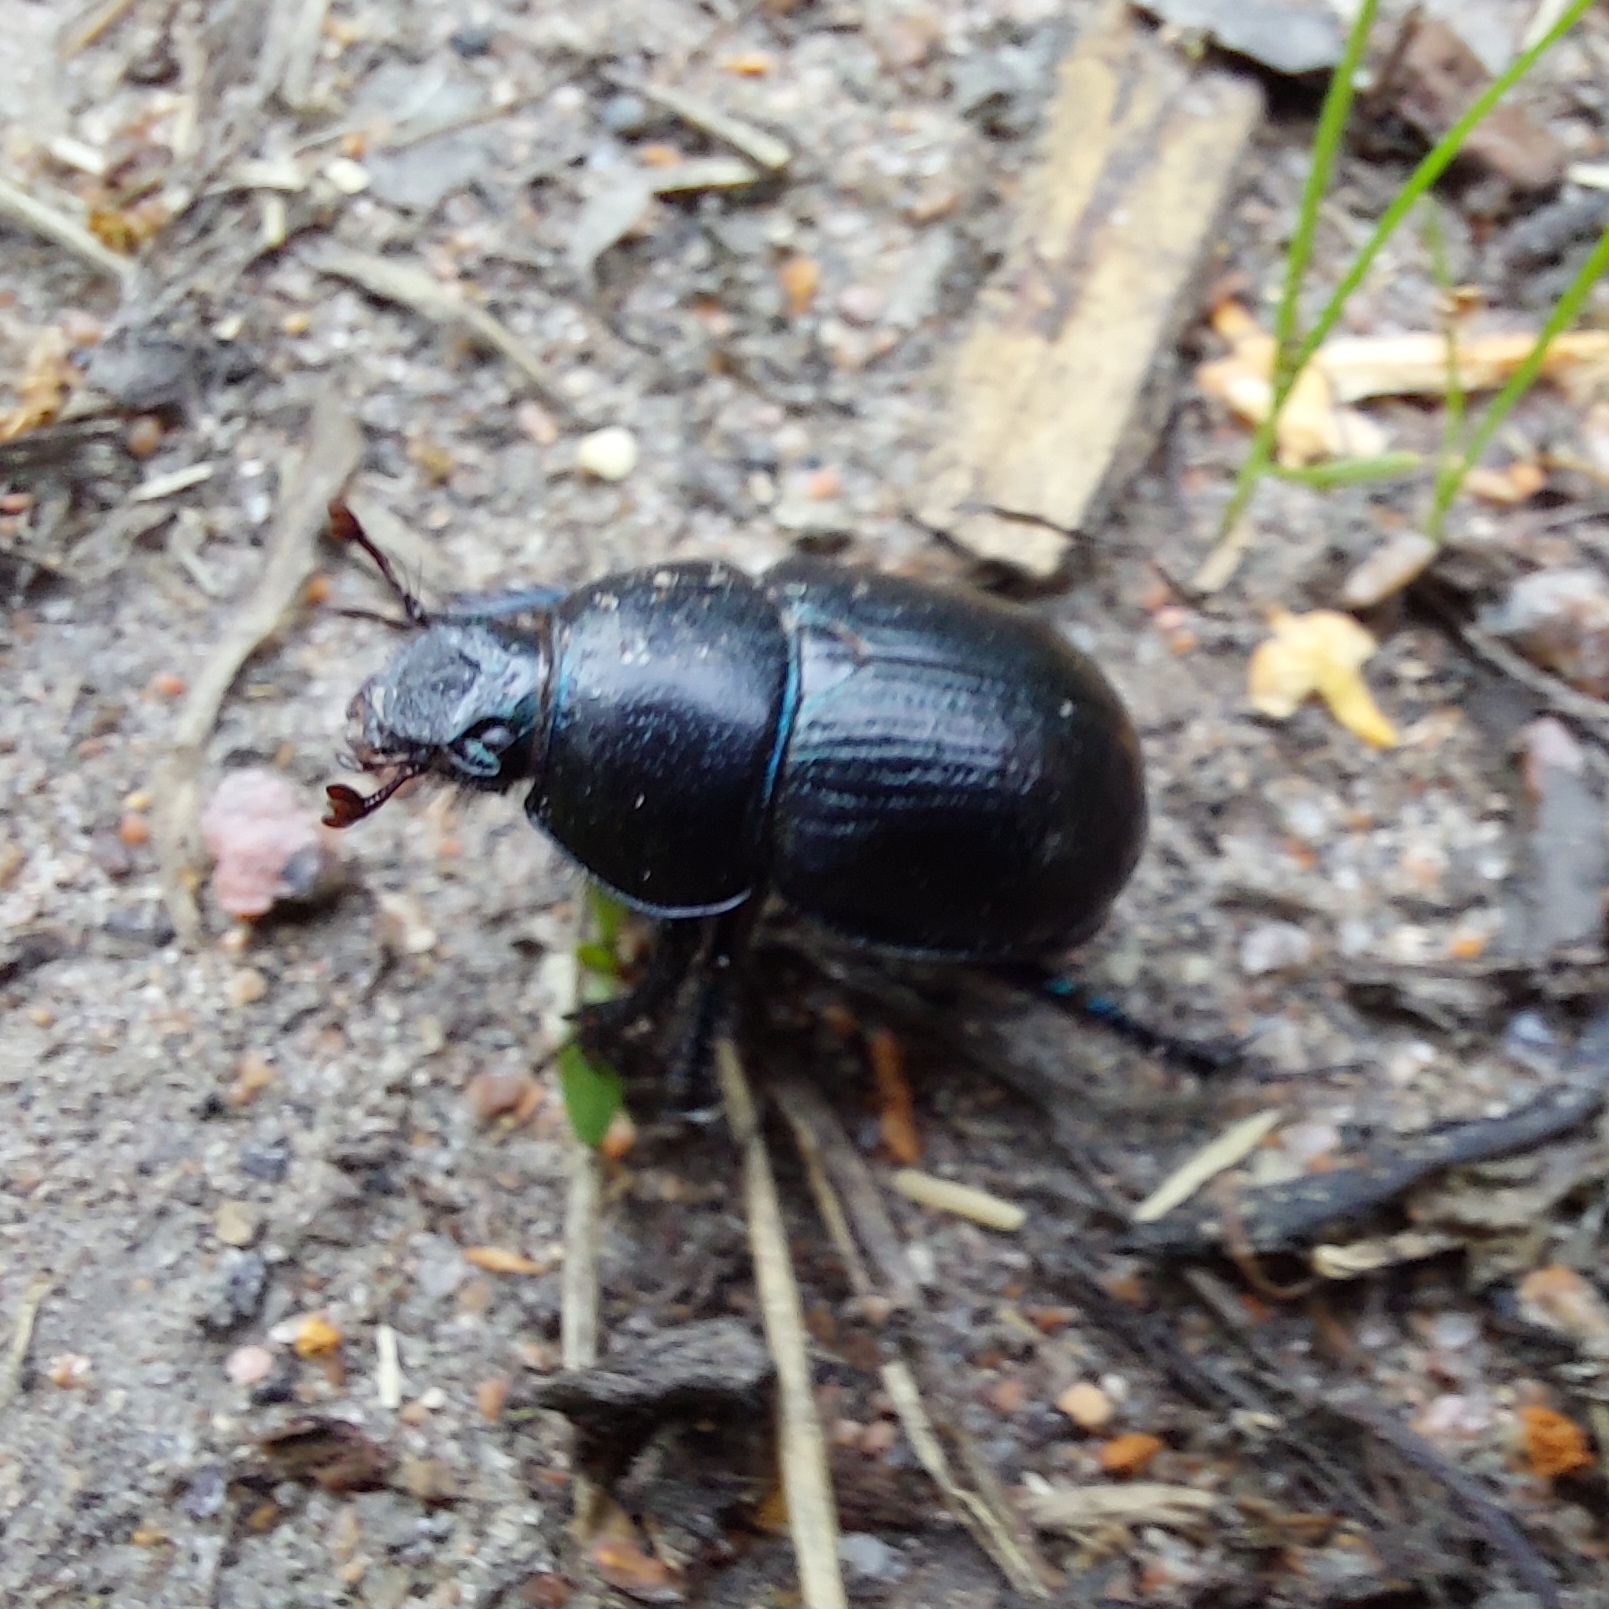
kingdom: Animalia
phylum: Arthropoda
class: Insecta
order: Coleoptera
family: Geotrupidae
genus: Anoplotrupes
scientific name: Anoplotrupes stercorosus
